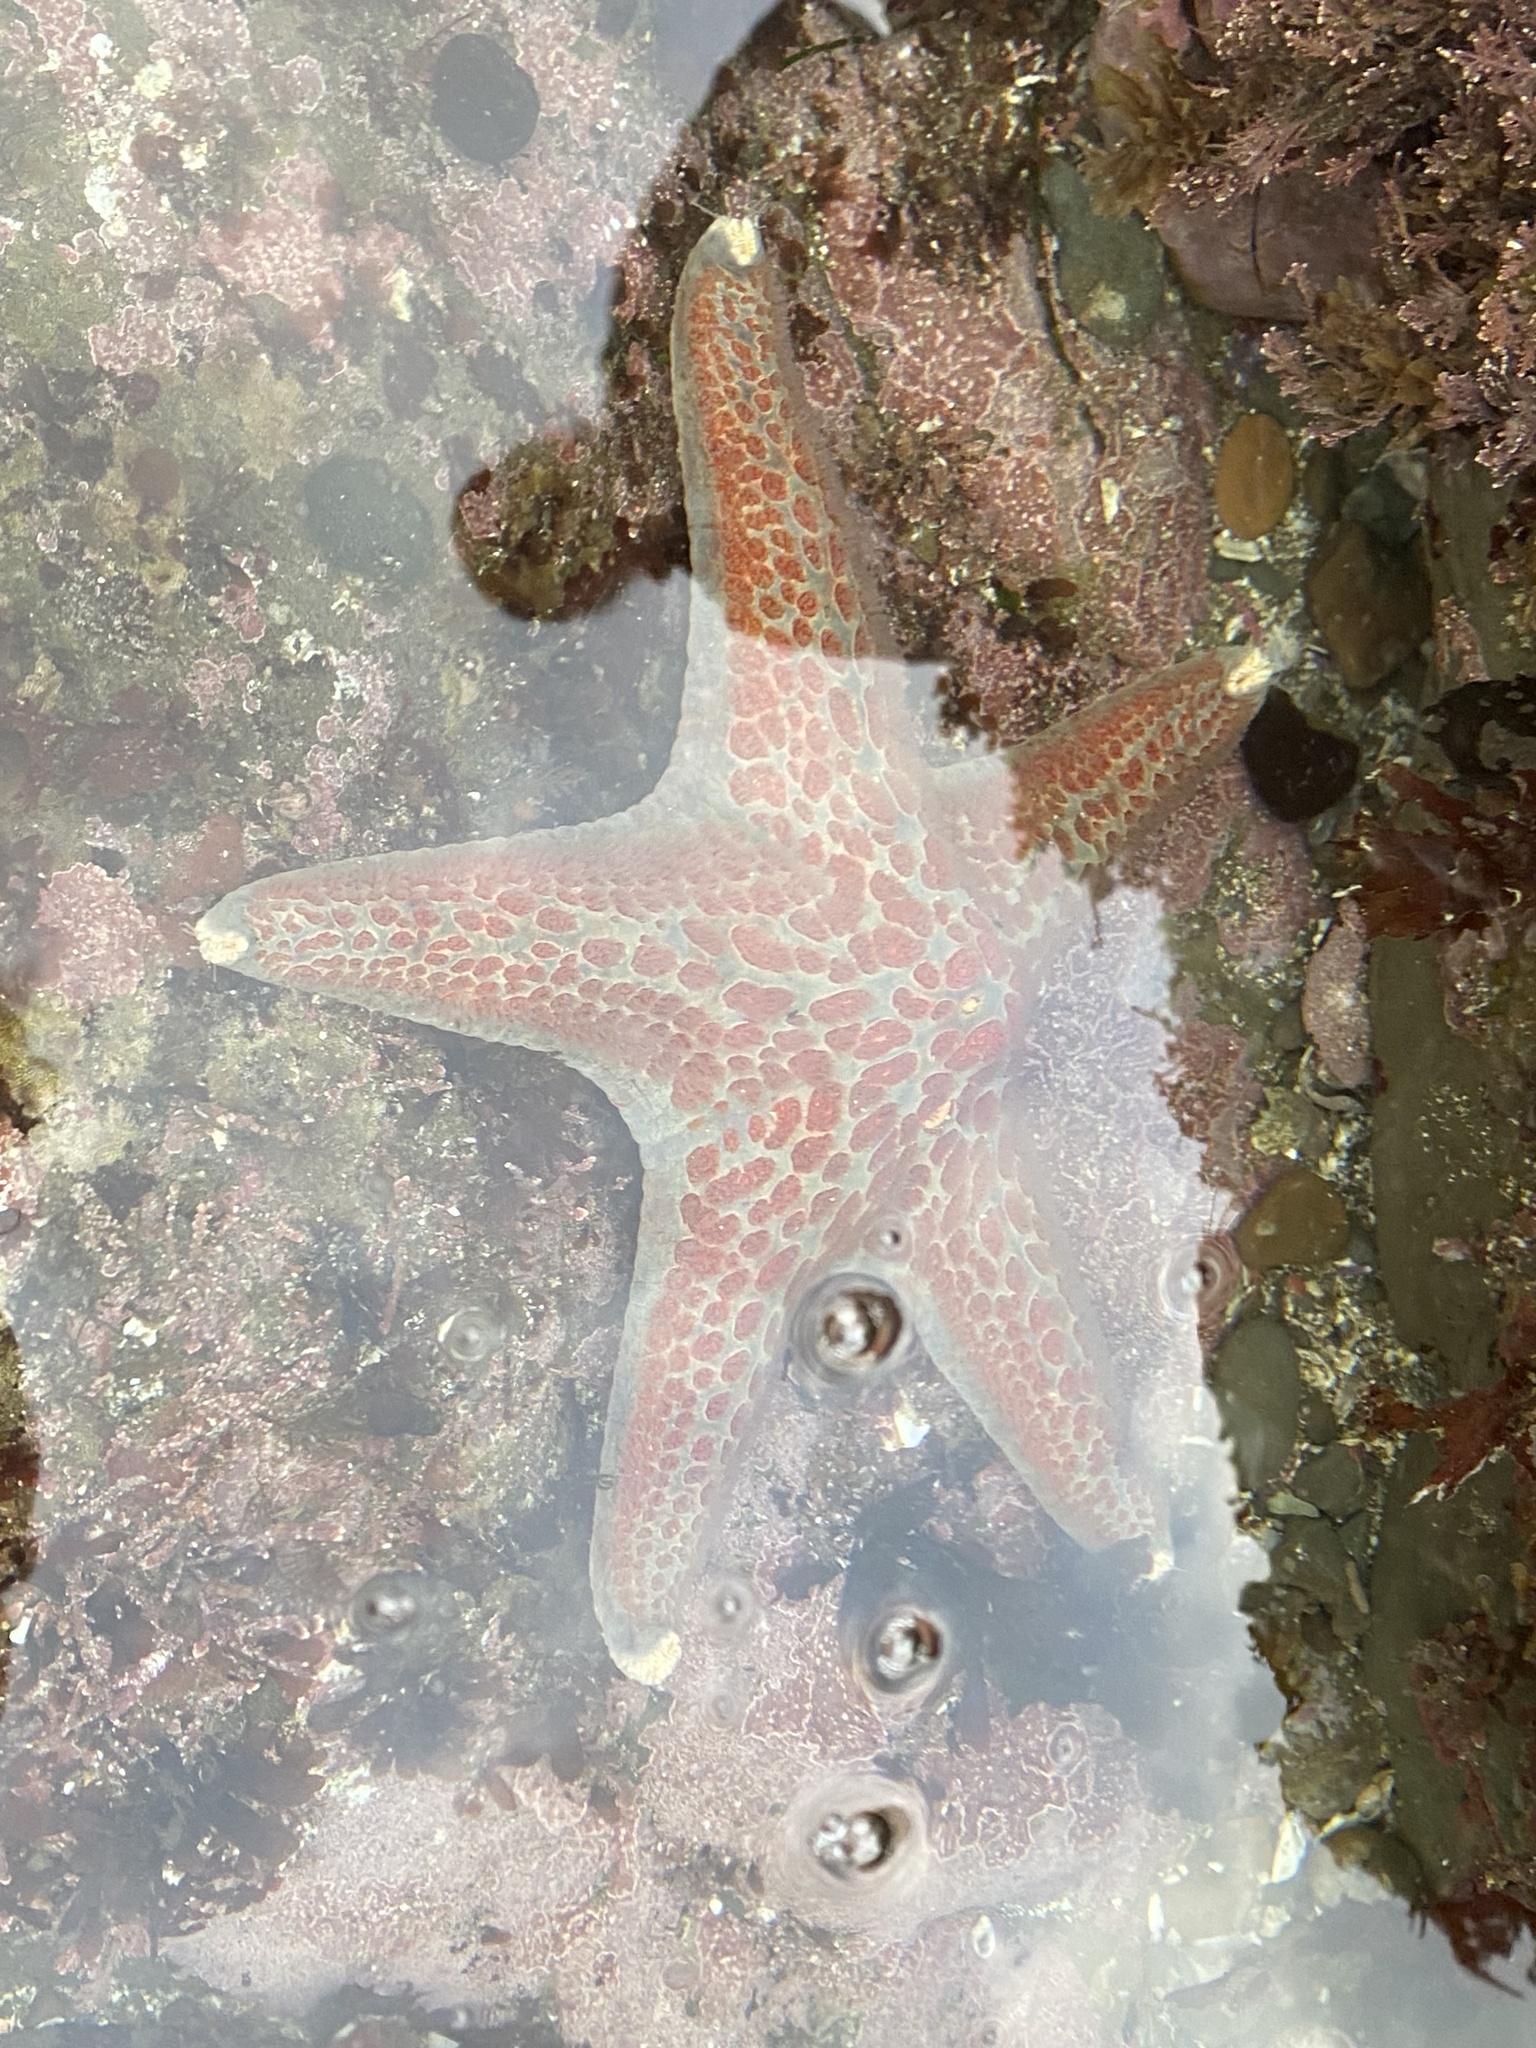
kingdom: Animalia
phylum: Echinodermata
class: Asteroidea
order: Valvatida
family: Asteropseidae
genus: Dermasterias
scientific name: Dermasterias imbricata
